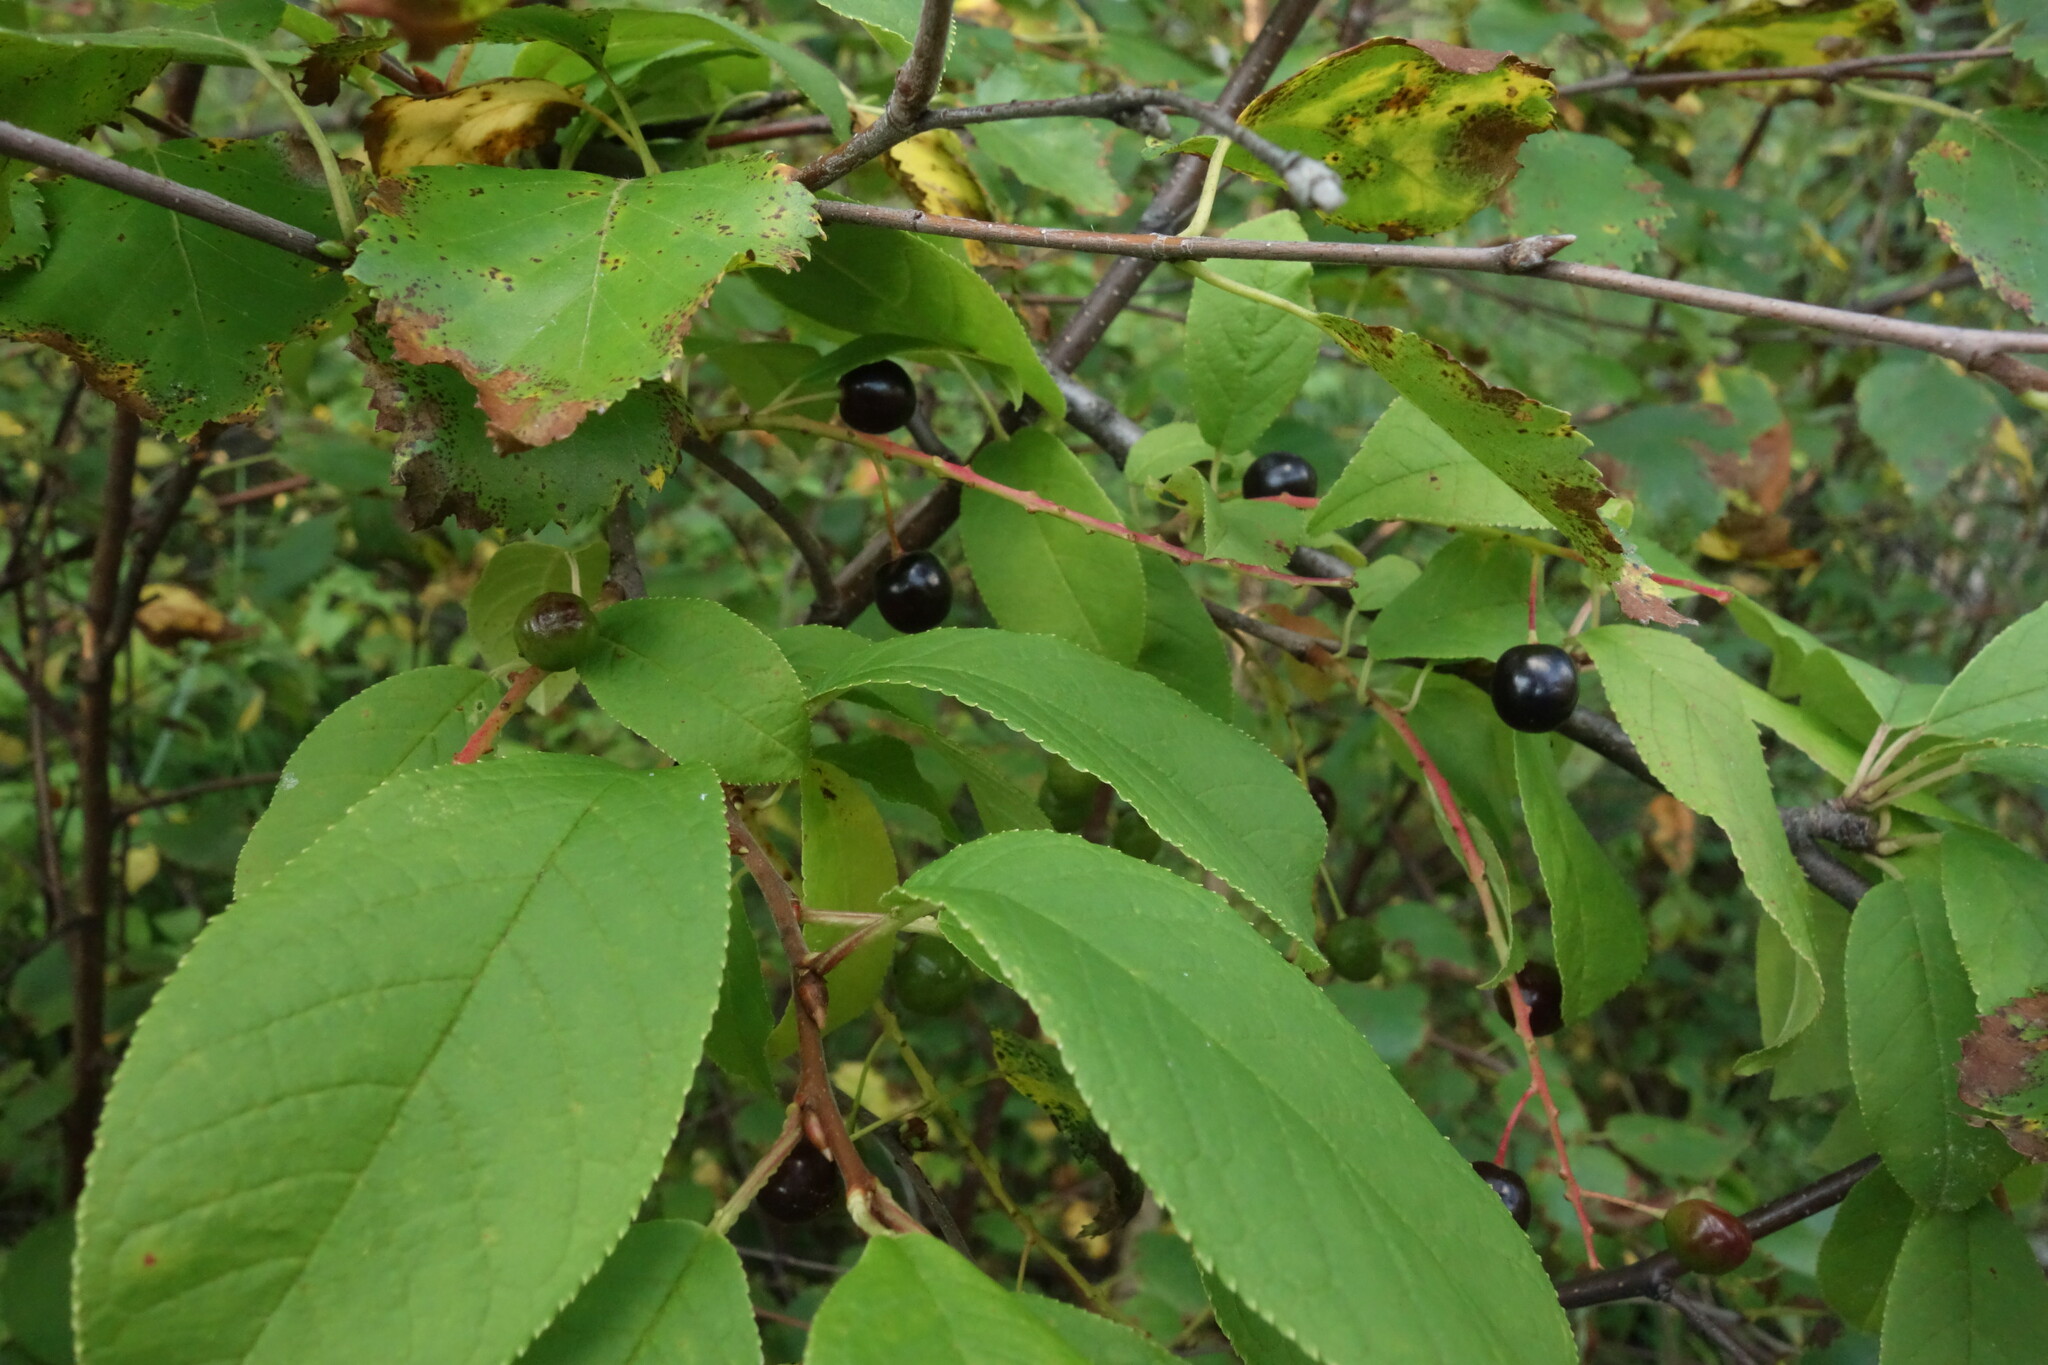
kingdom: Plantae
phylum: Tracheophyta
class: Magnoliopsida
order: Rosales
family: Rosaceae
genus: Prunus
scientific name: Prunus padus
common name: Bird cherry
